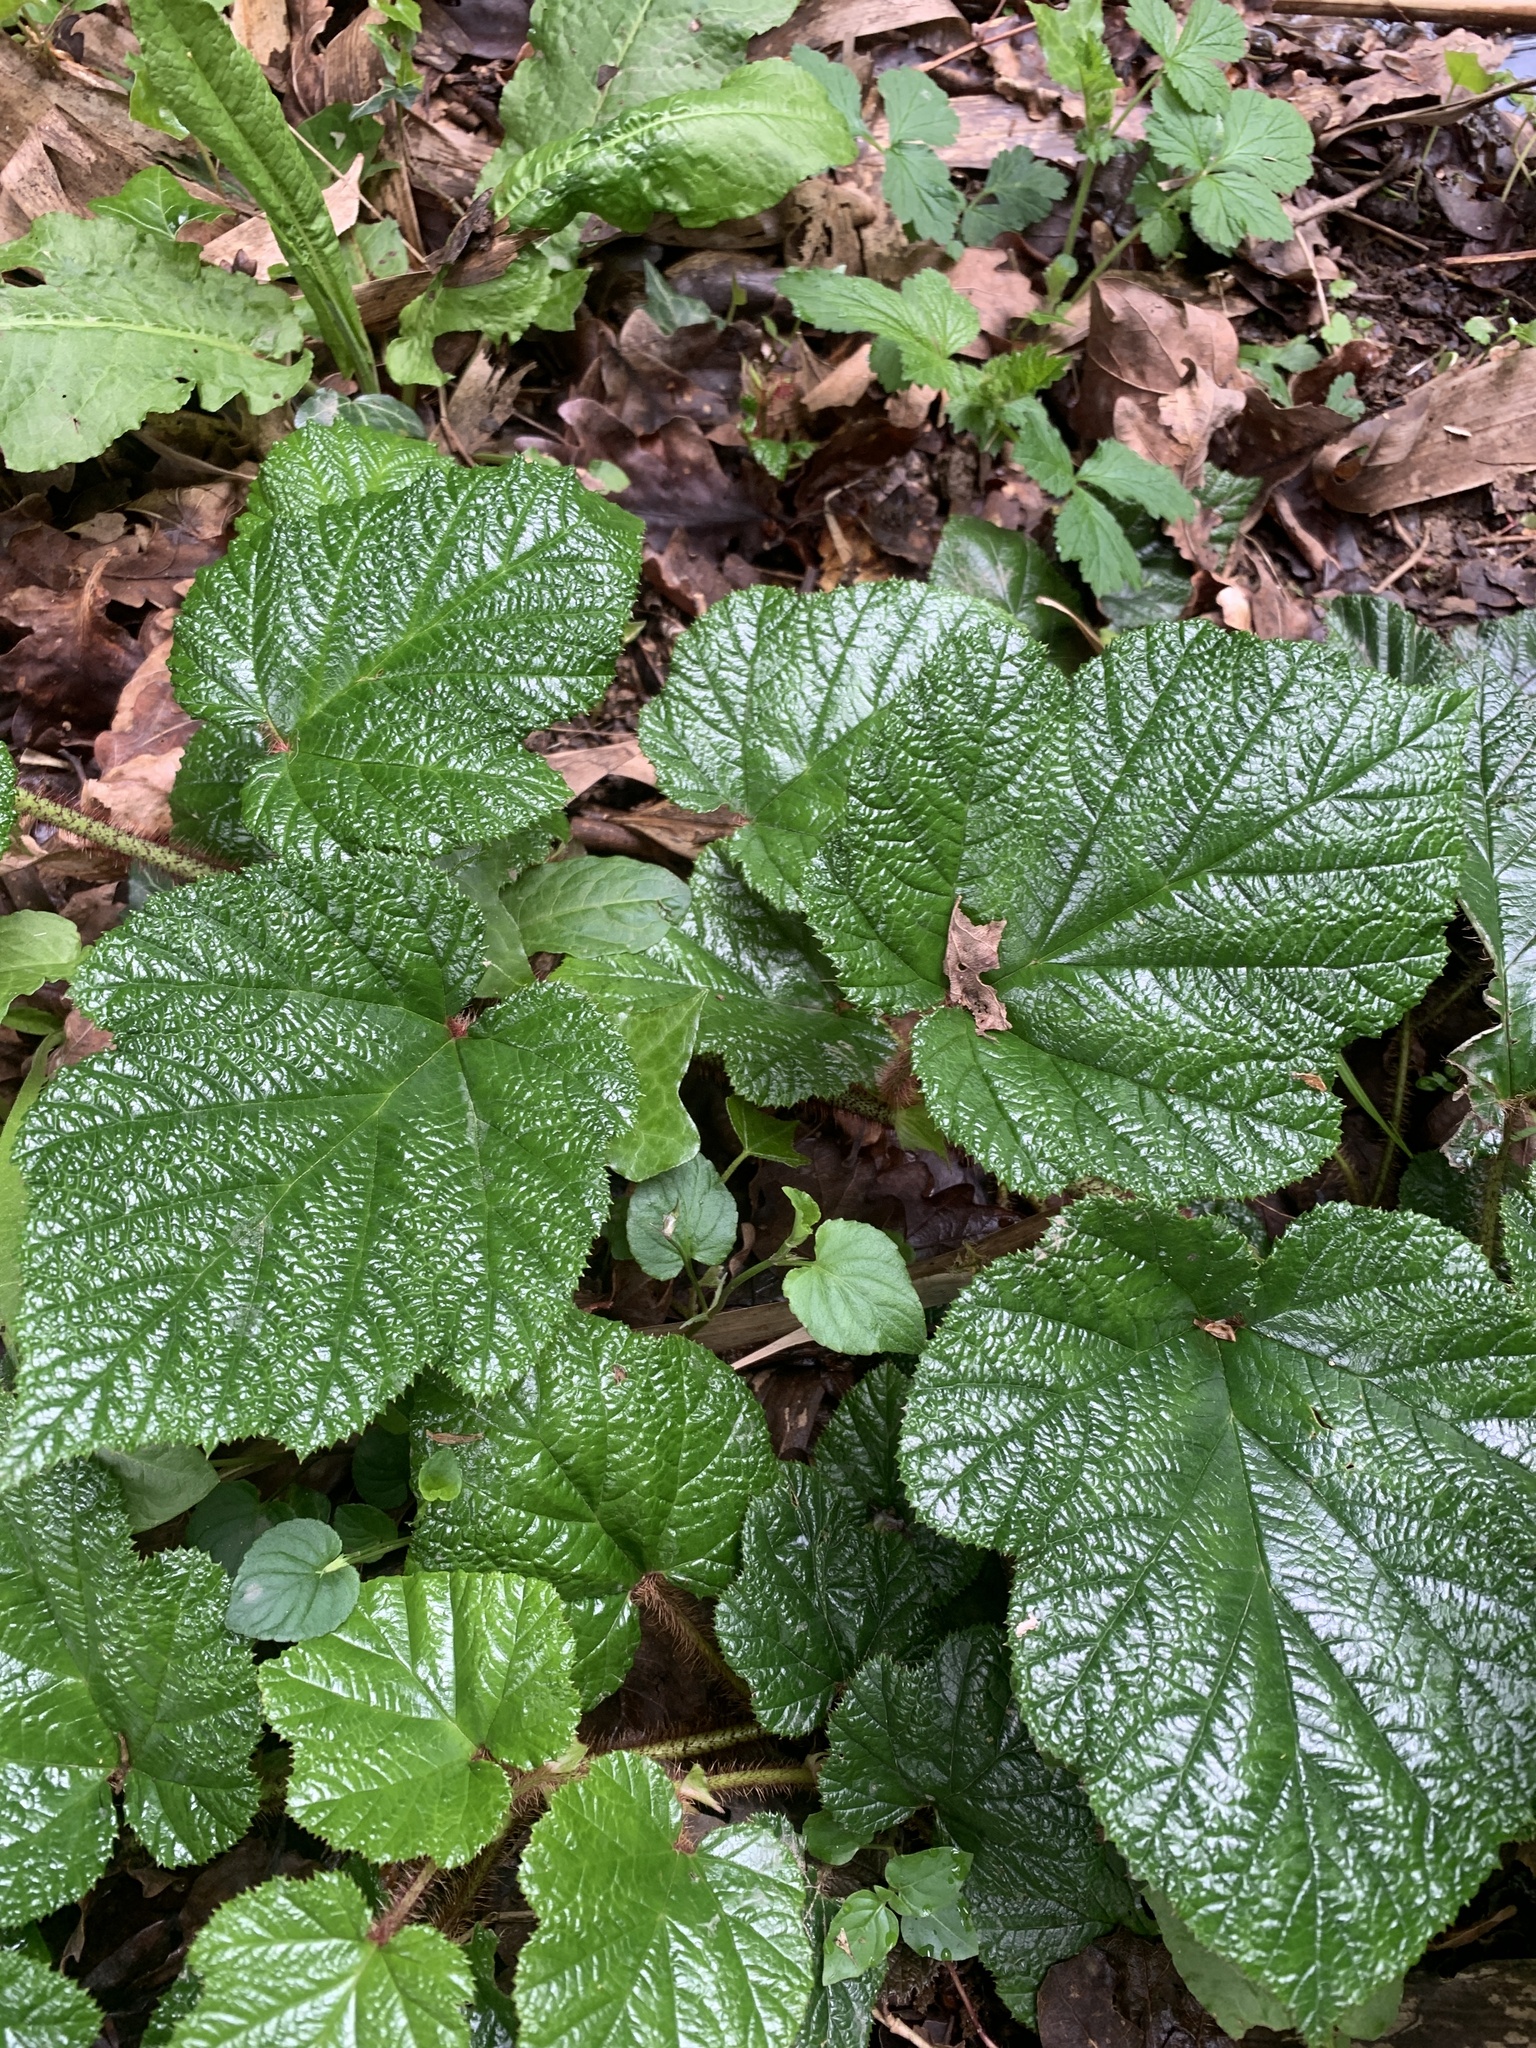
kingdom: Plantae
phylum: Tracheophyta
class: Magnoliopsida
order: Rosales
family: Rosaceae
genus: Rubus
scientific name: Rubus tricolor
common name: Chinese bramble
